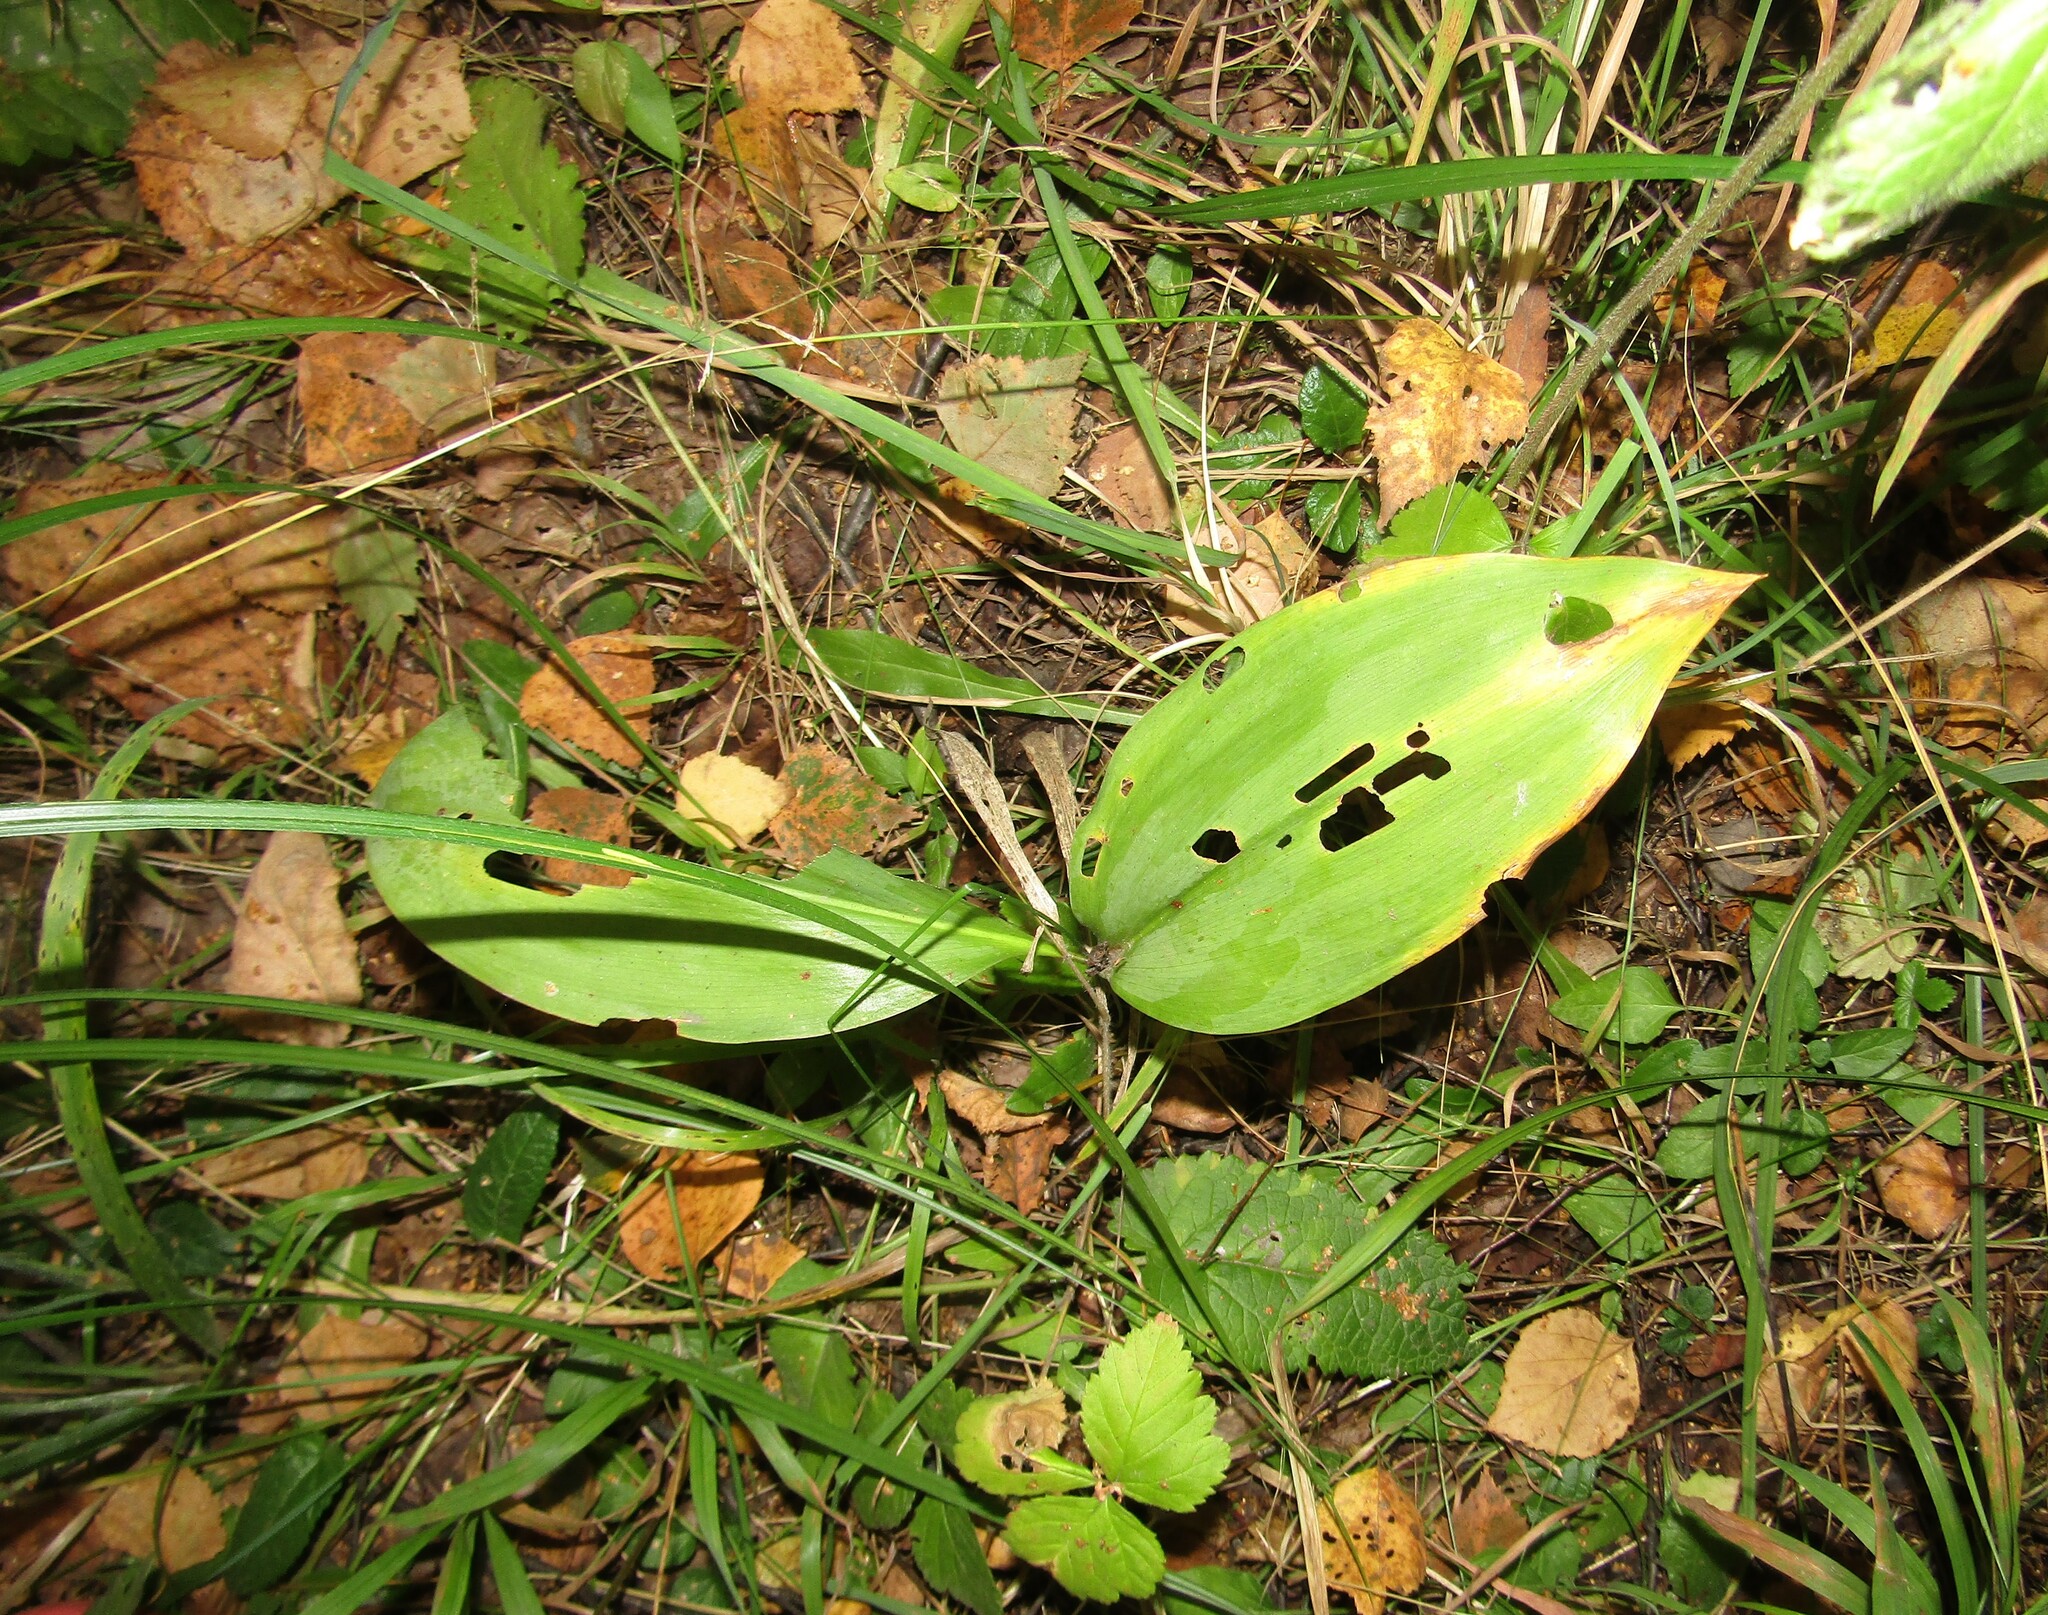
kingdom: Plantae
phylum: Tracheophyta
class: Liliopsida
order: Asparagales
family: Asparagaceae
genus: Convallaria
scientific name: Convallaria majalis
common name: Lily-of-the-valley
